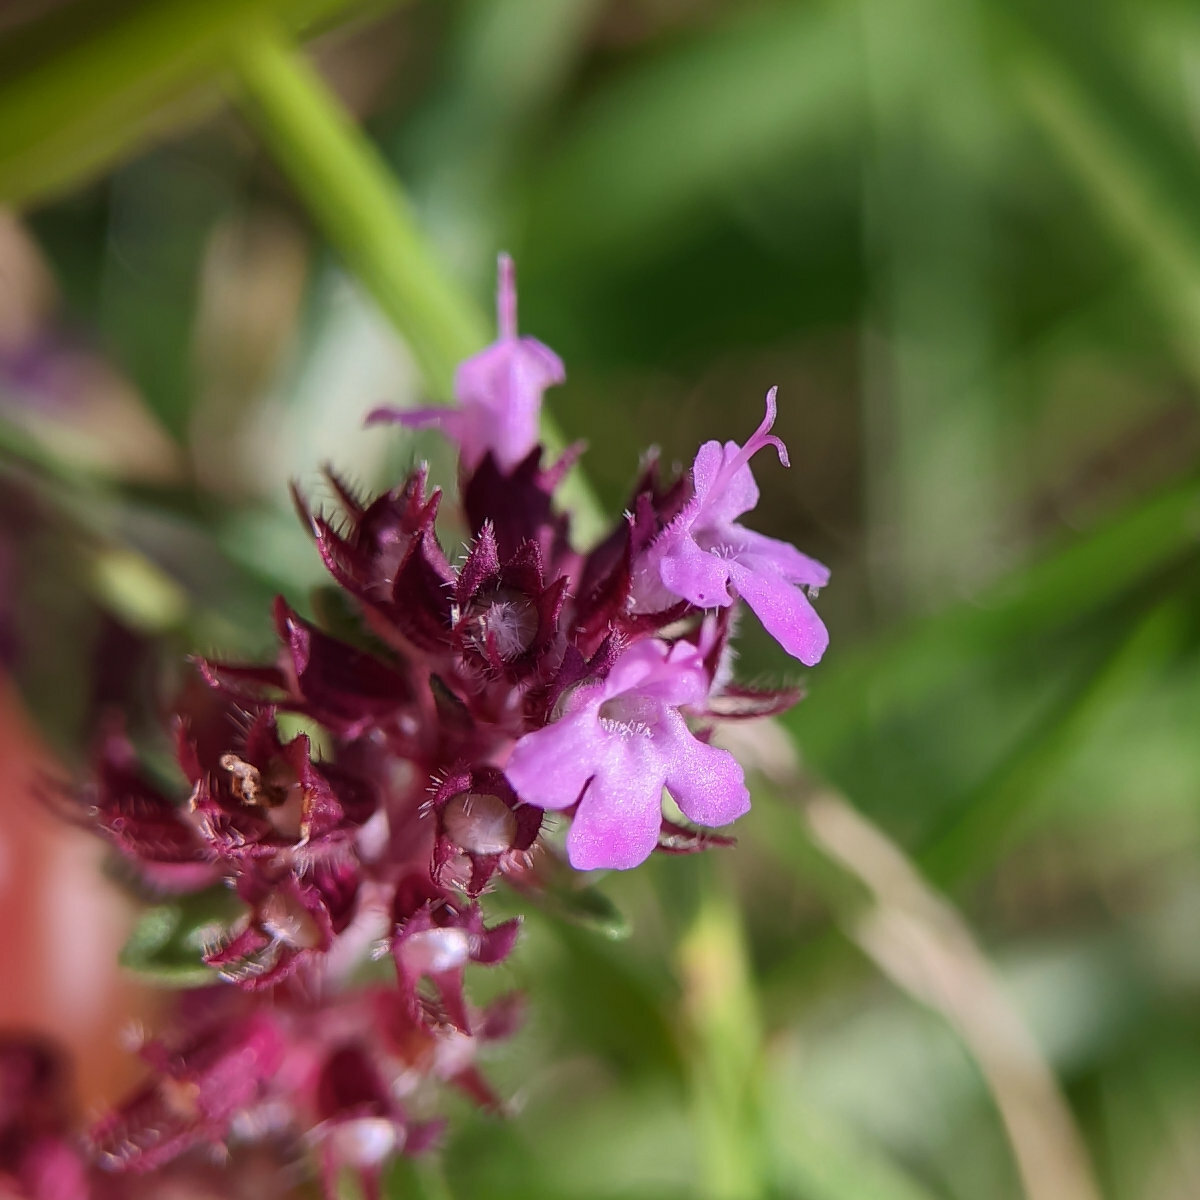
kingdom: Plantae
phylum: Tracheophyta
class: Magnoliopsida
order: Lamiales
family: Lamiaceae
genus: Thymus
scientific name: Thymus pulegioides
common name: Large thyme
